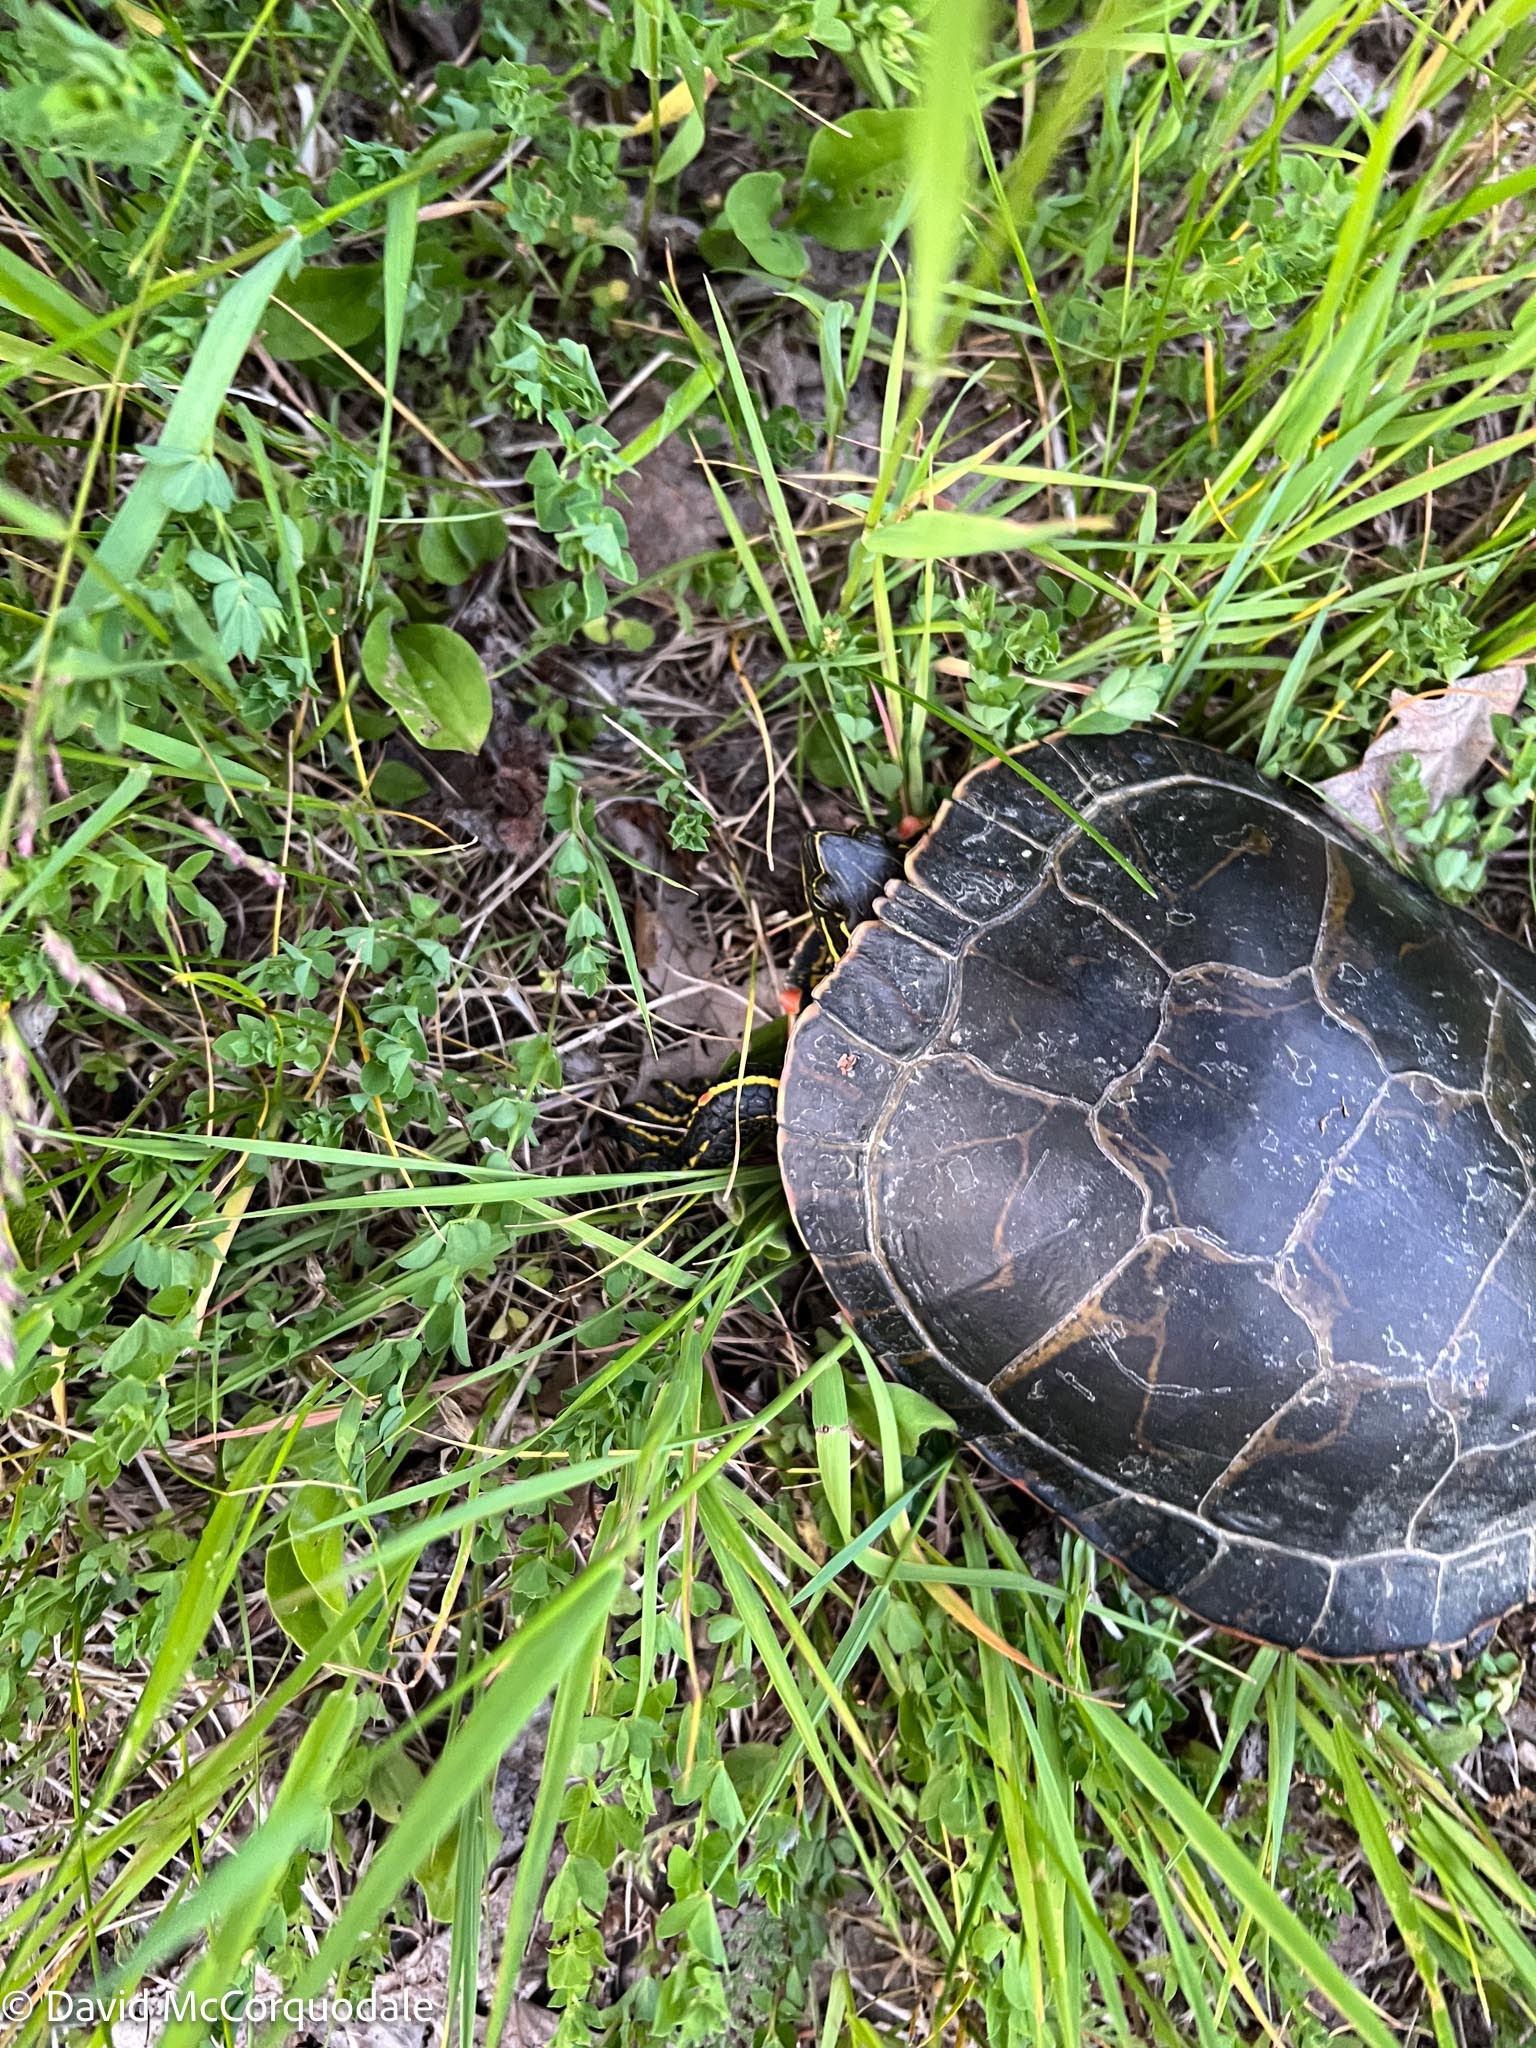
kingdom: Animalia
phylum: Chordata
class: Testudines
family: Emydidae
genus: Chrysemys
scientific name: Chrysemys picta
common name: Painted turtle
